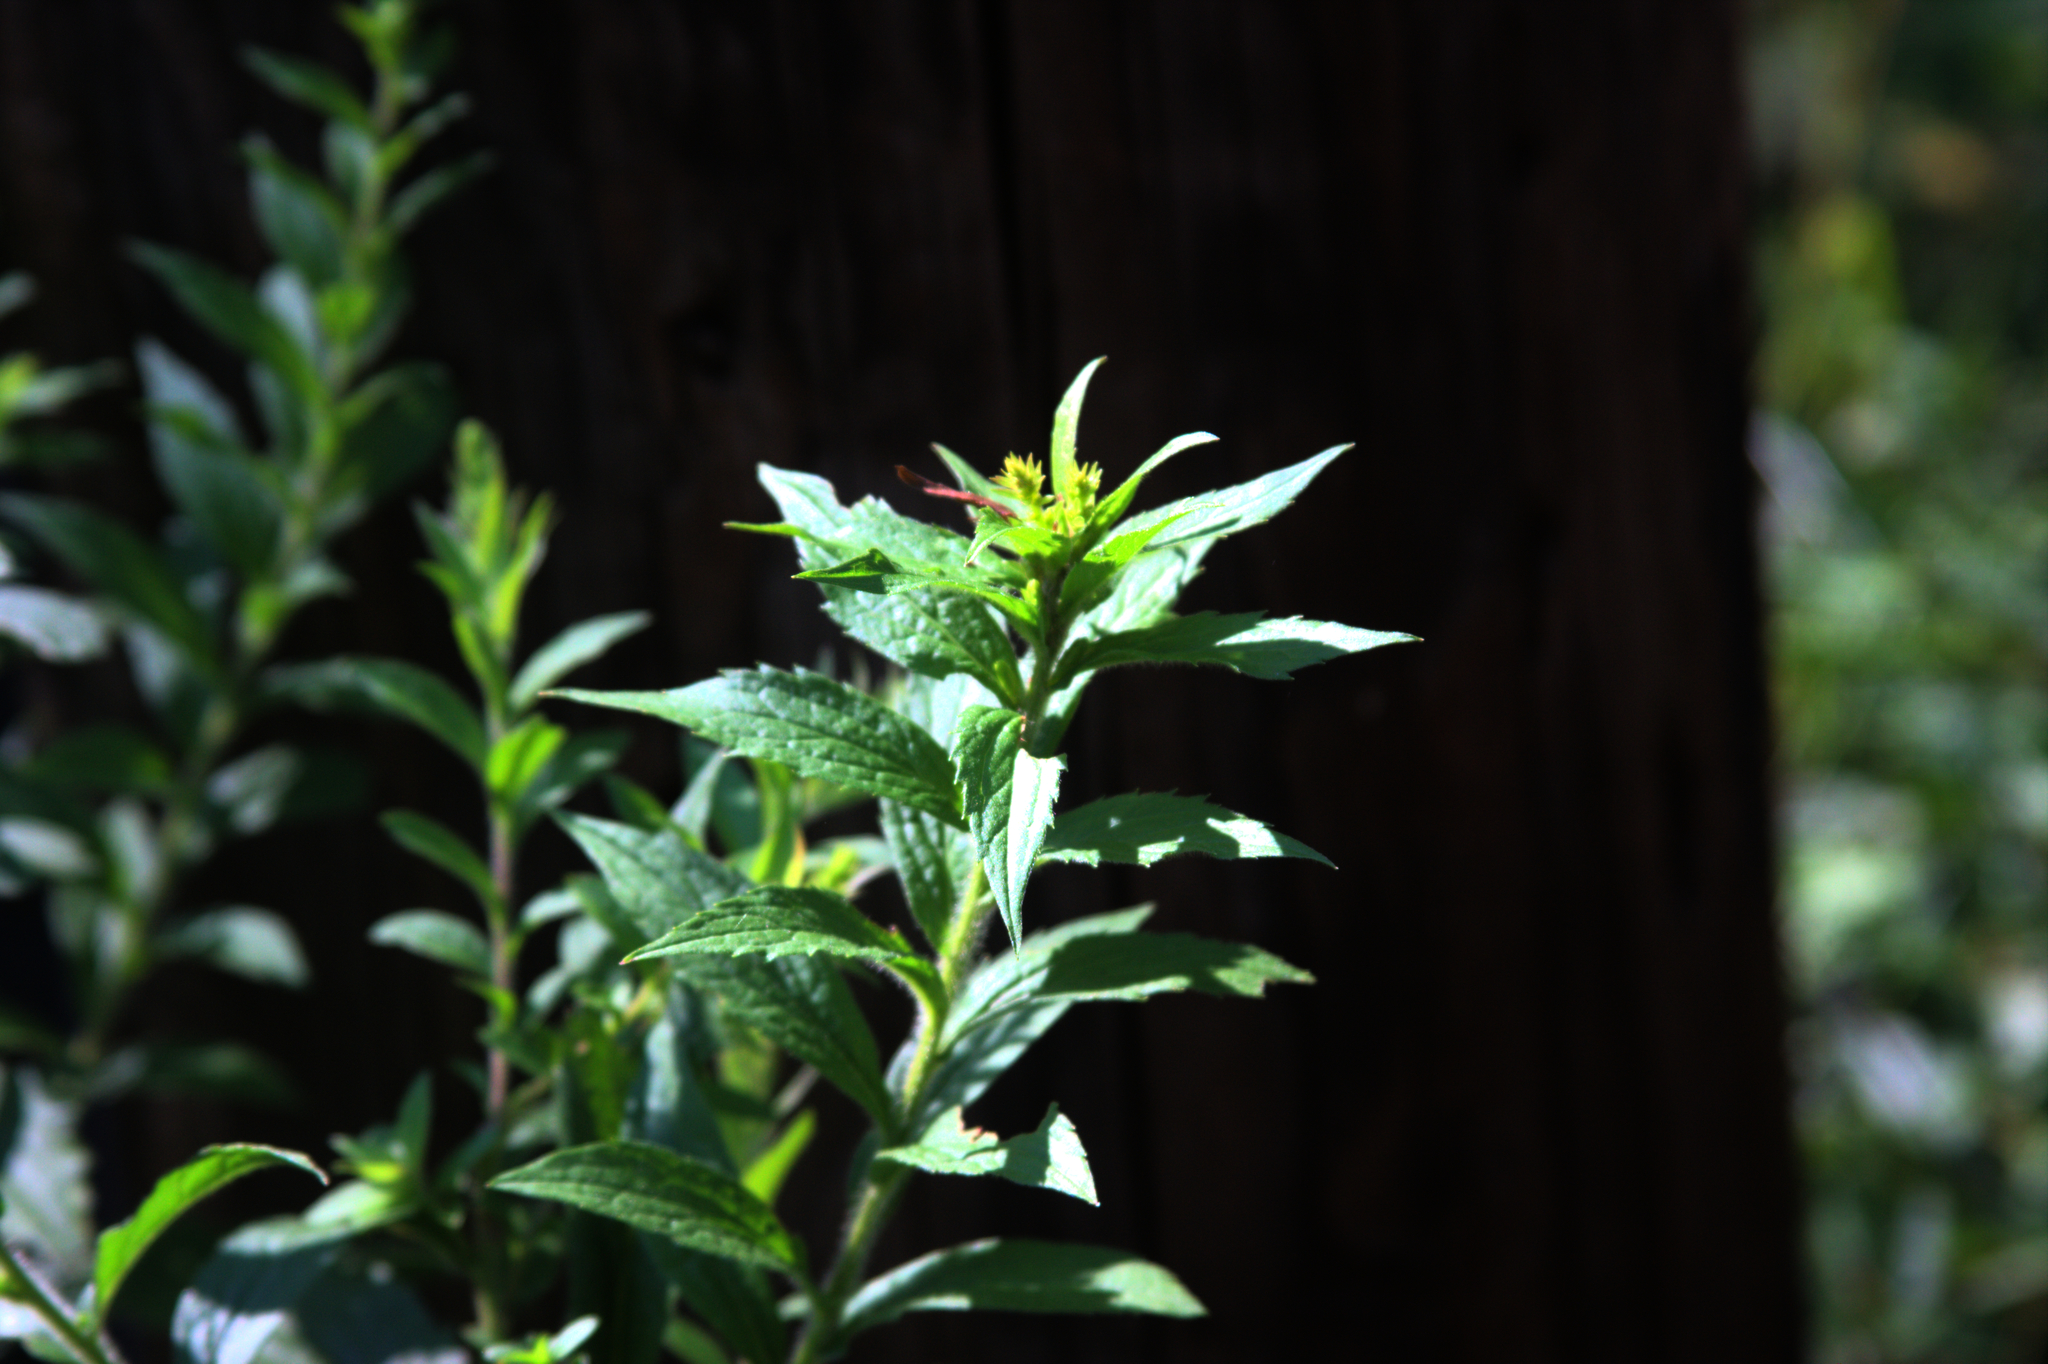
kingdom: Plantae
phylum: Tracheophyta
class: Magnoliopsida
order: Asterales
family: Asteraceae
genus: Solidago
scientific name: Solidago rugosa
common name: Rough-stemmed goldenrod
